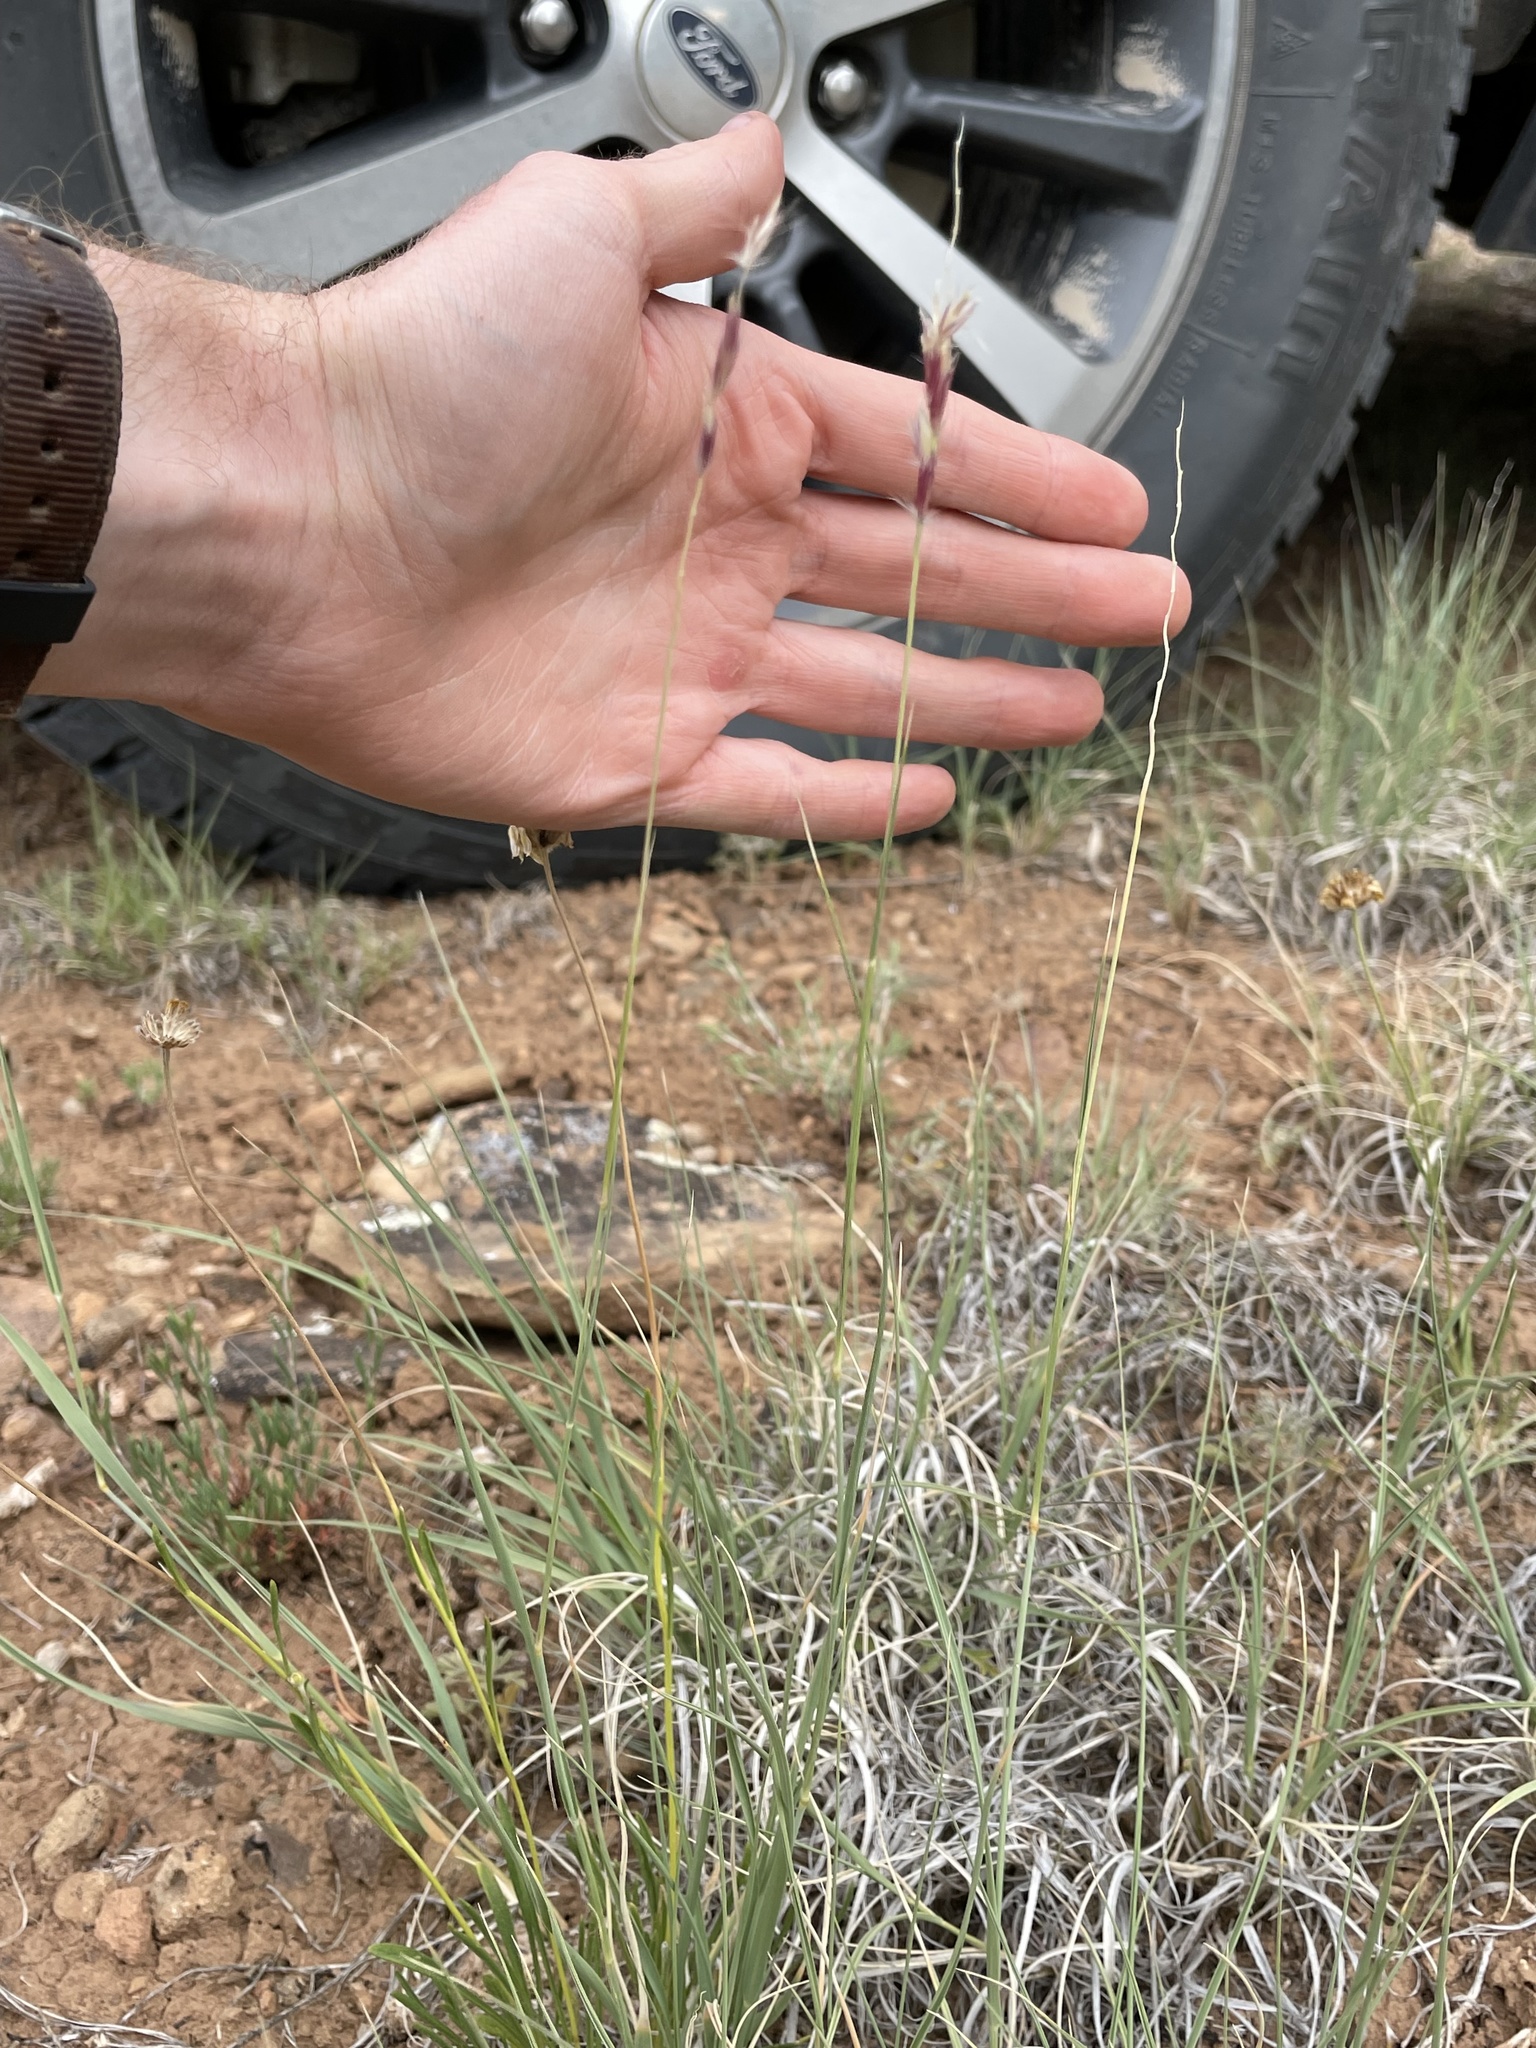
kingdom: Plantae
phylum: Tracheophyta
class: Liliopsida
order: Poales
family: Poaceae
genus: Hilaria
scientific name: Hilaria jamesii
